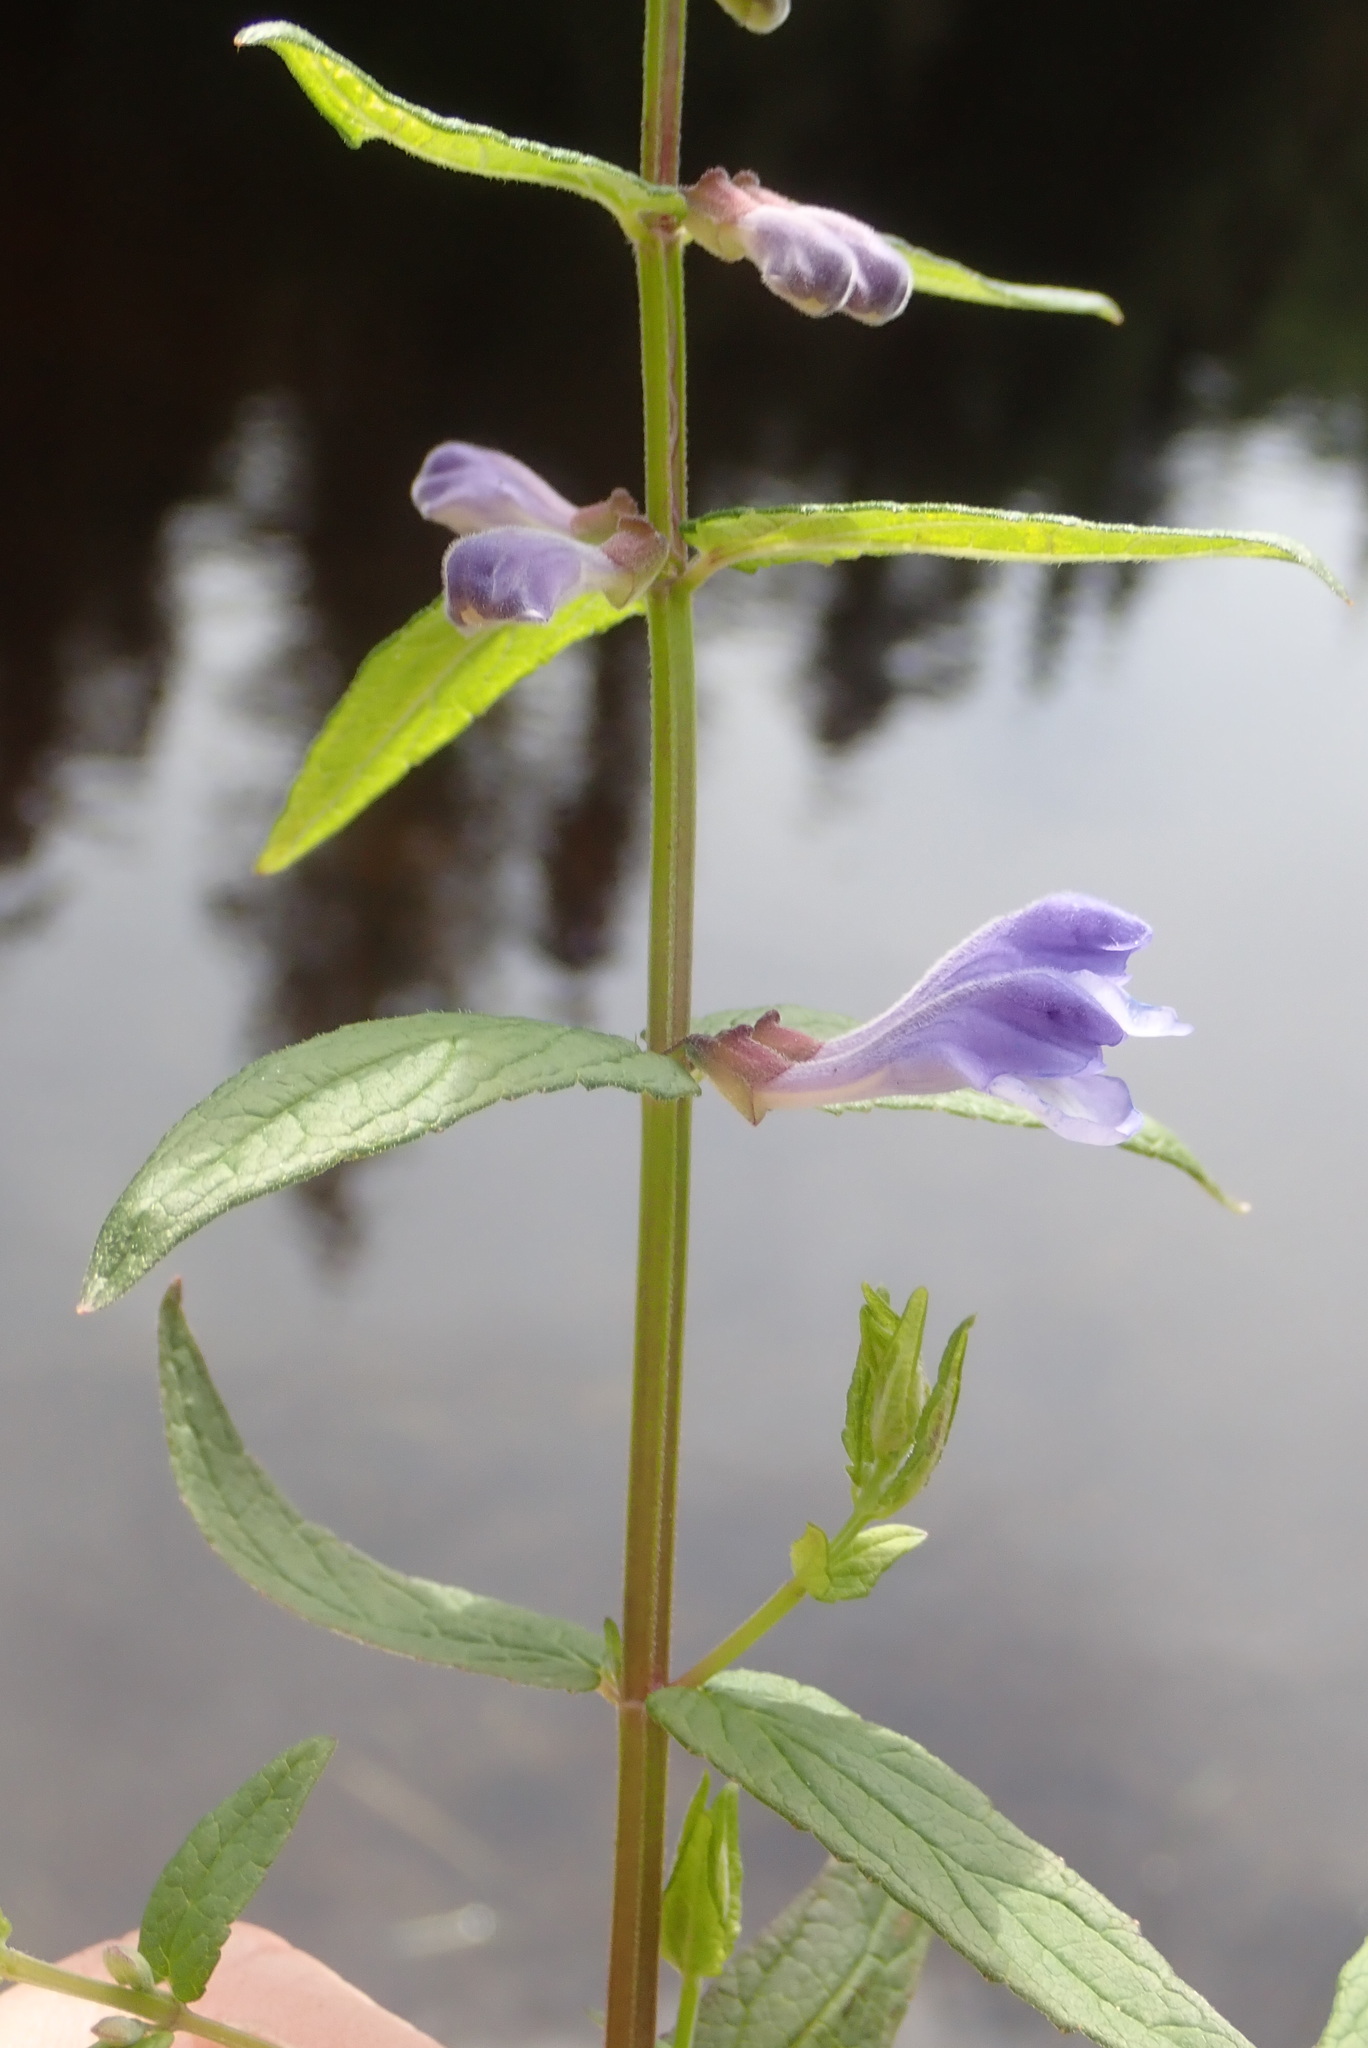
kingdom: Plantae
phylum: Tracheophyta
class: Magnoliopsida
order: Lamiales
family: Lamiaceae
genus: Scutellaria
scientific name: Scutellaria galericulata
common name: Skullcap
